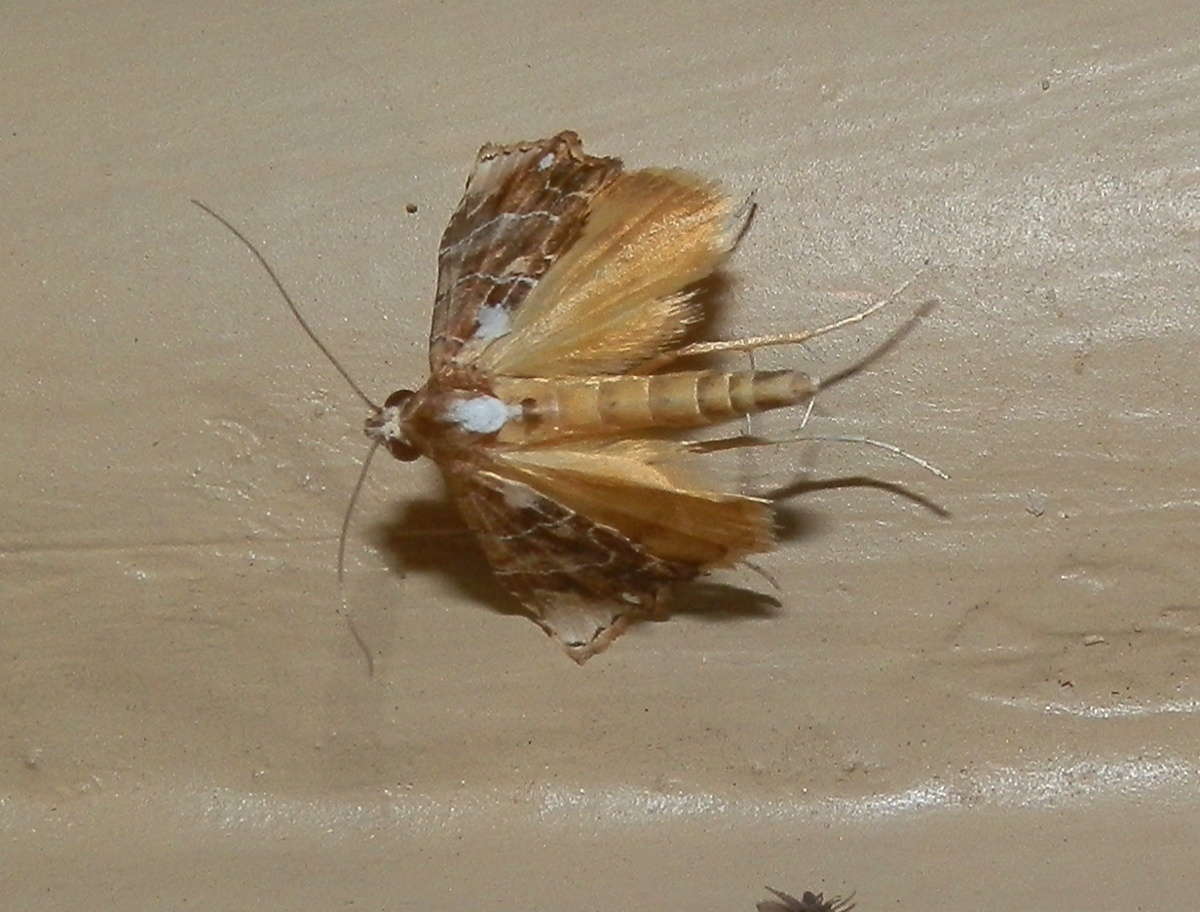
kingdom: Animalia
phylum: Arthropoda
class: Insecta
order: Lepidoptera
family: Erebidae
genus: Arrade
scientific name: Arrade leucocosmalis
